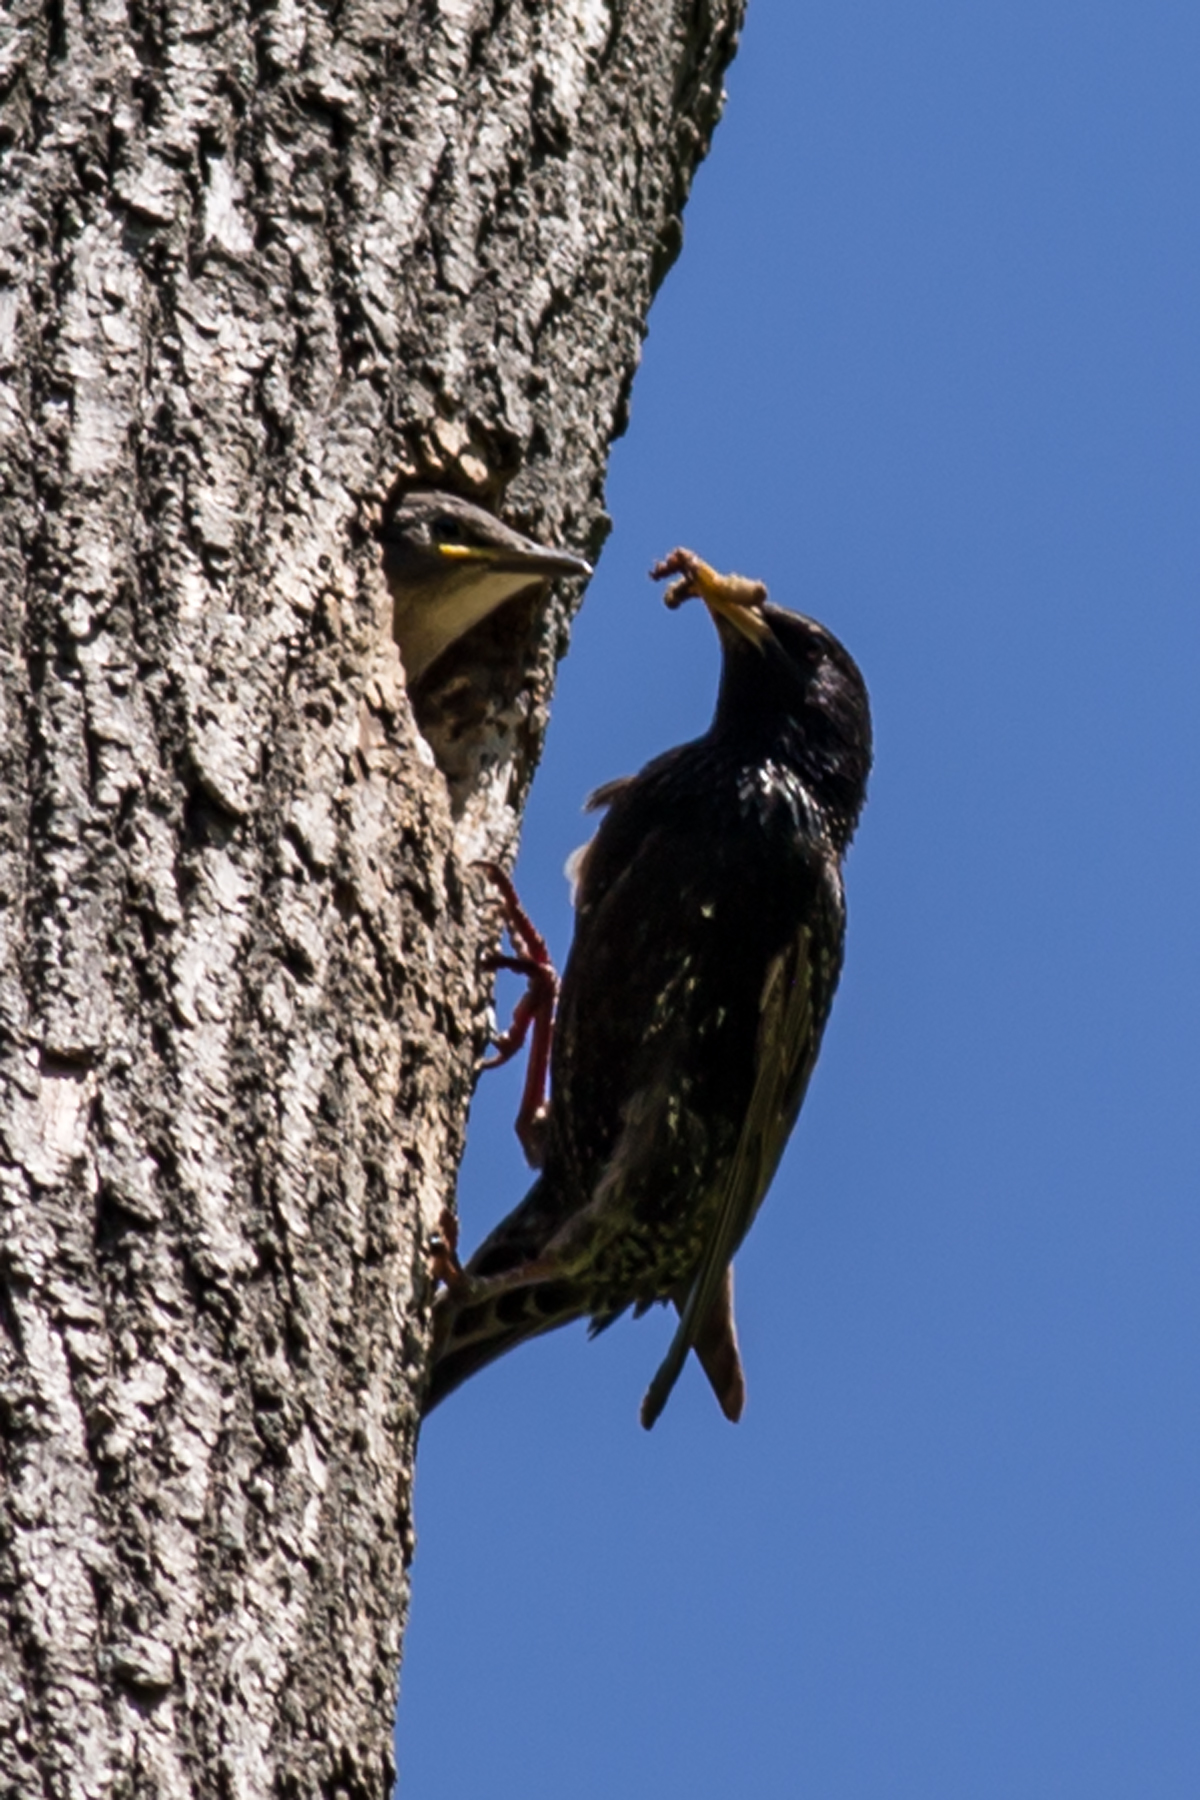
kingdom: Animalia
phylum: Chordata
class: Aves
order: Passeriformes
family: Sturnidae
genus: Sturnus
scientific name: Sturnus vulgaris
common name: Common starling
